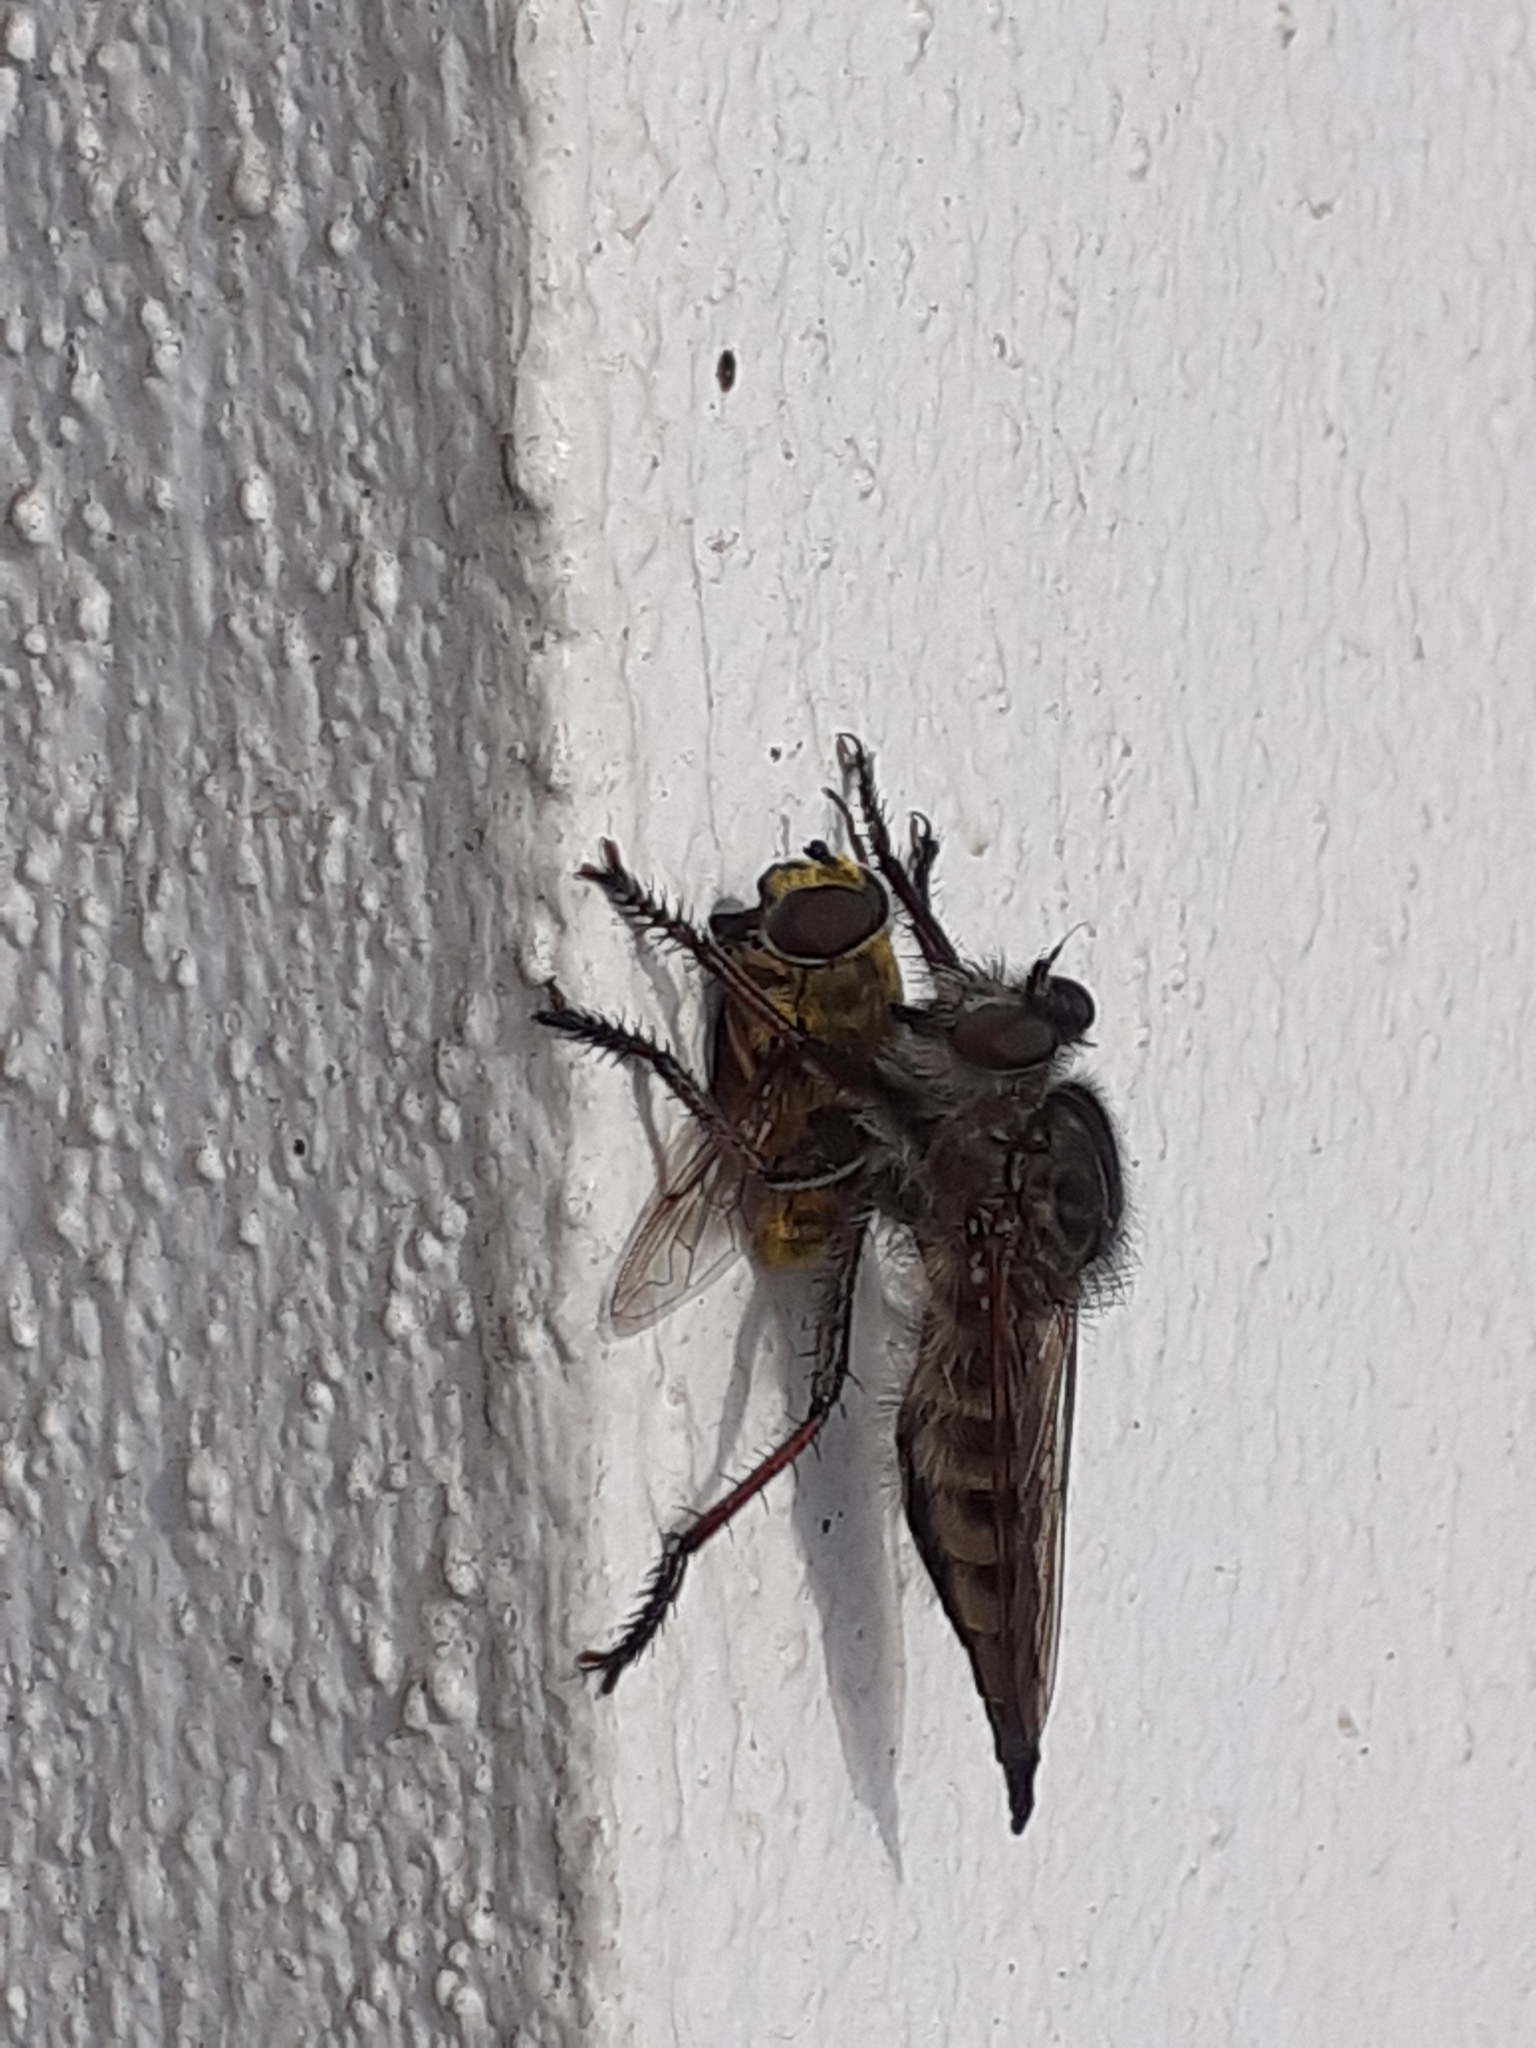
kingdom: Animalia
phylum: Arthropoda
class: Insecta
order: Diptera
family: Asilidae
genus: Promachus
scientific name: Promachus palmensis
